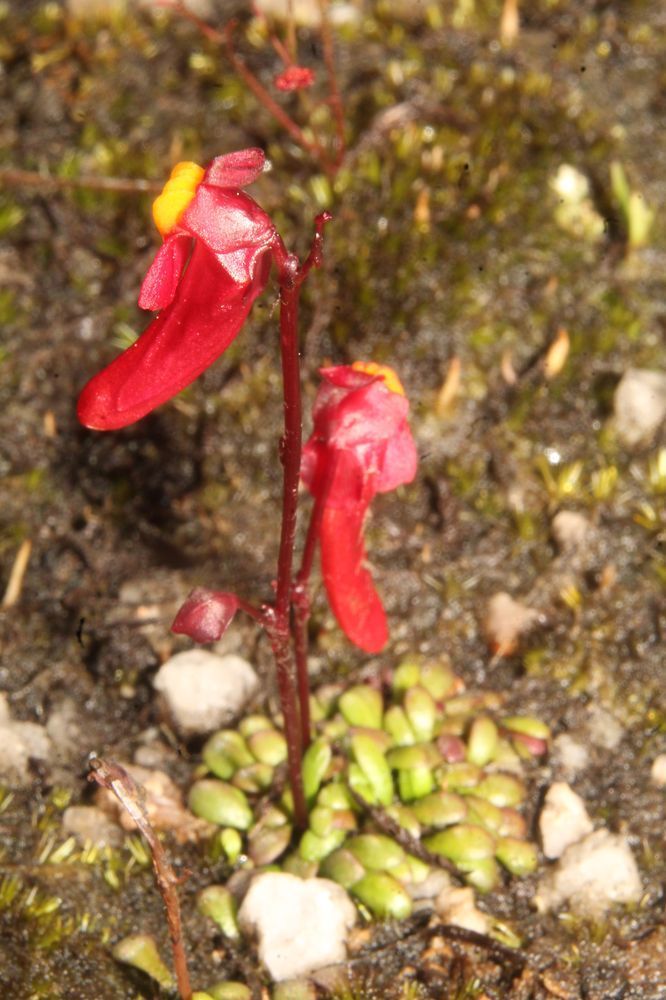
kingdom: Plantae
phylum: Tracheophyta
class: Magnoliopsida
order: Lamiales
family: Lentibulariaceae
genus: Utricularia
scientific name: Utricularia menziesii
